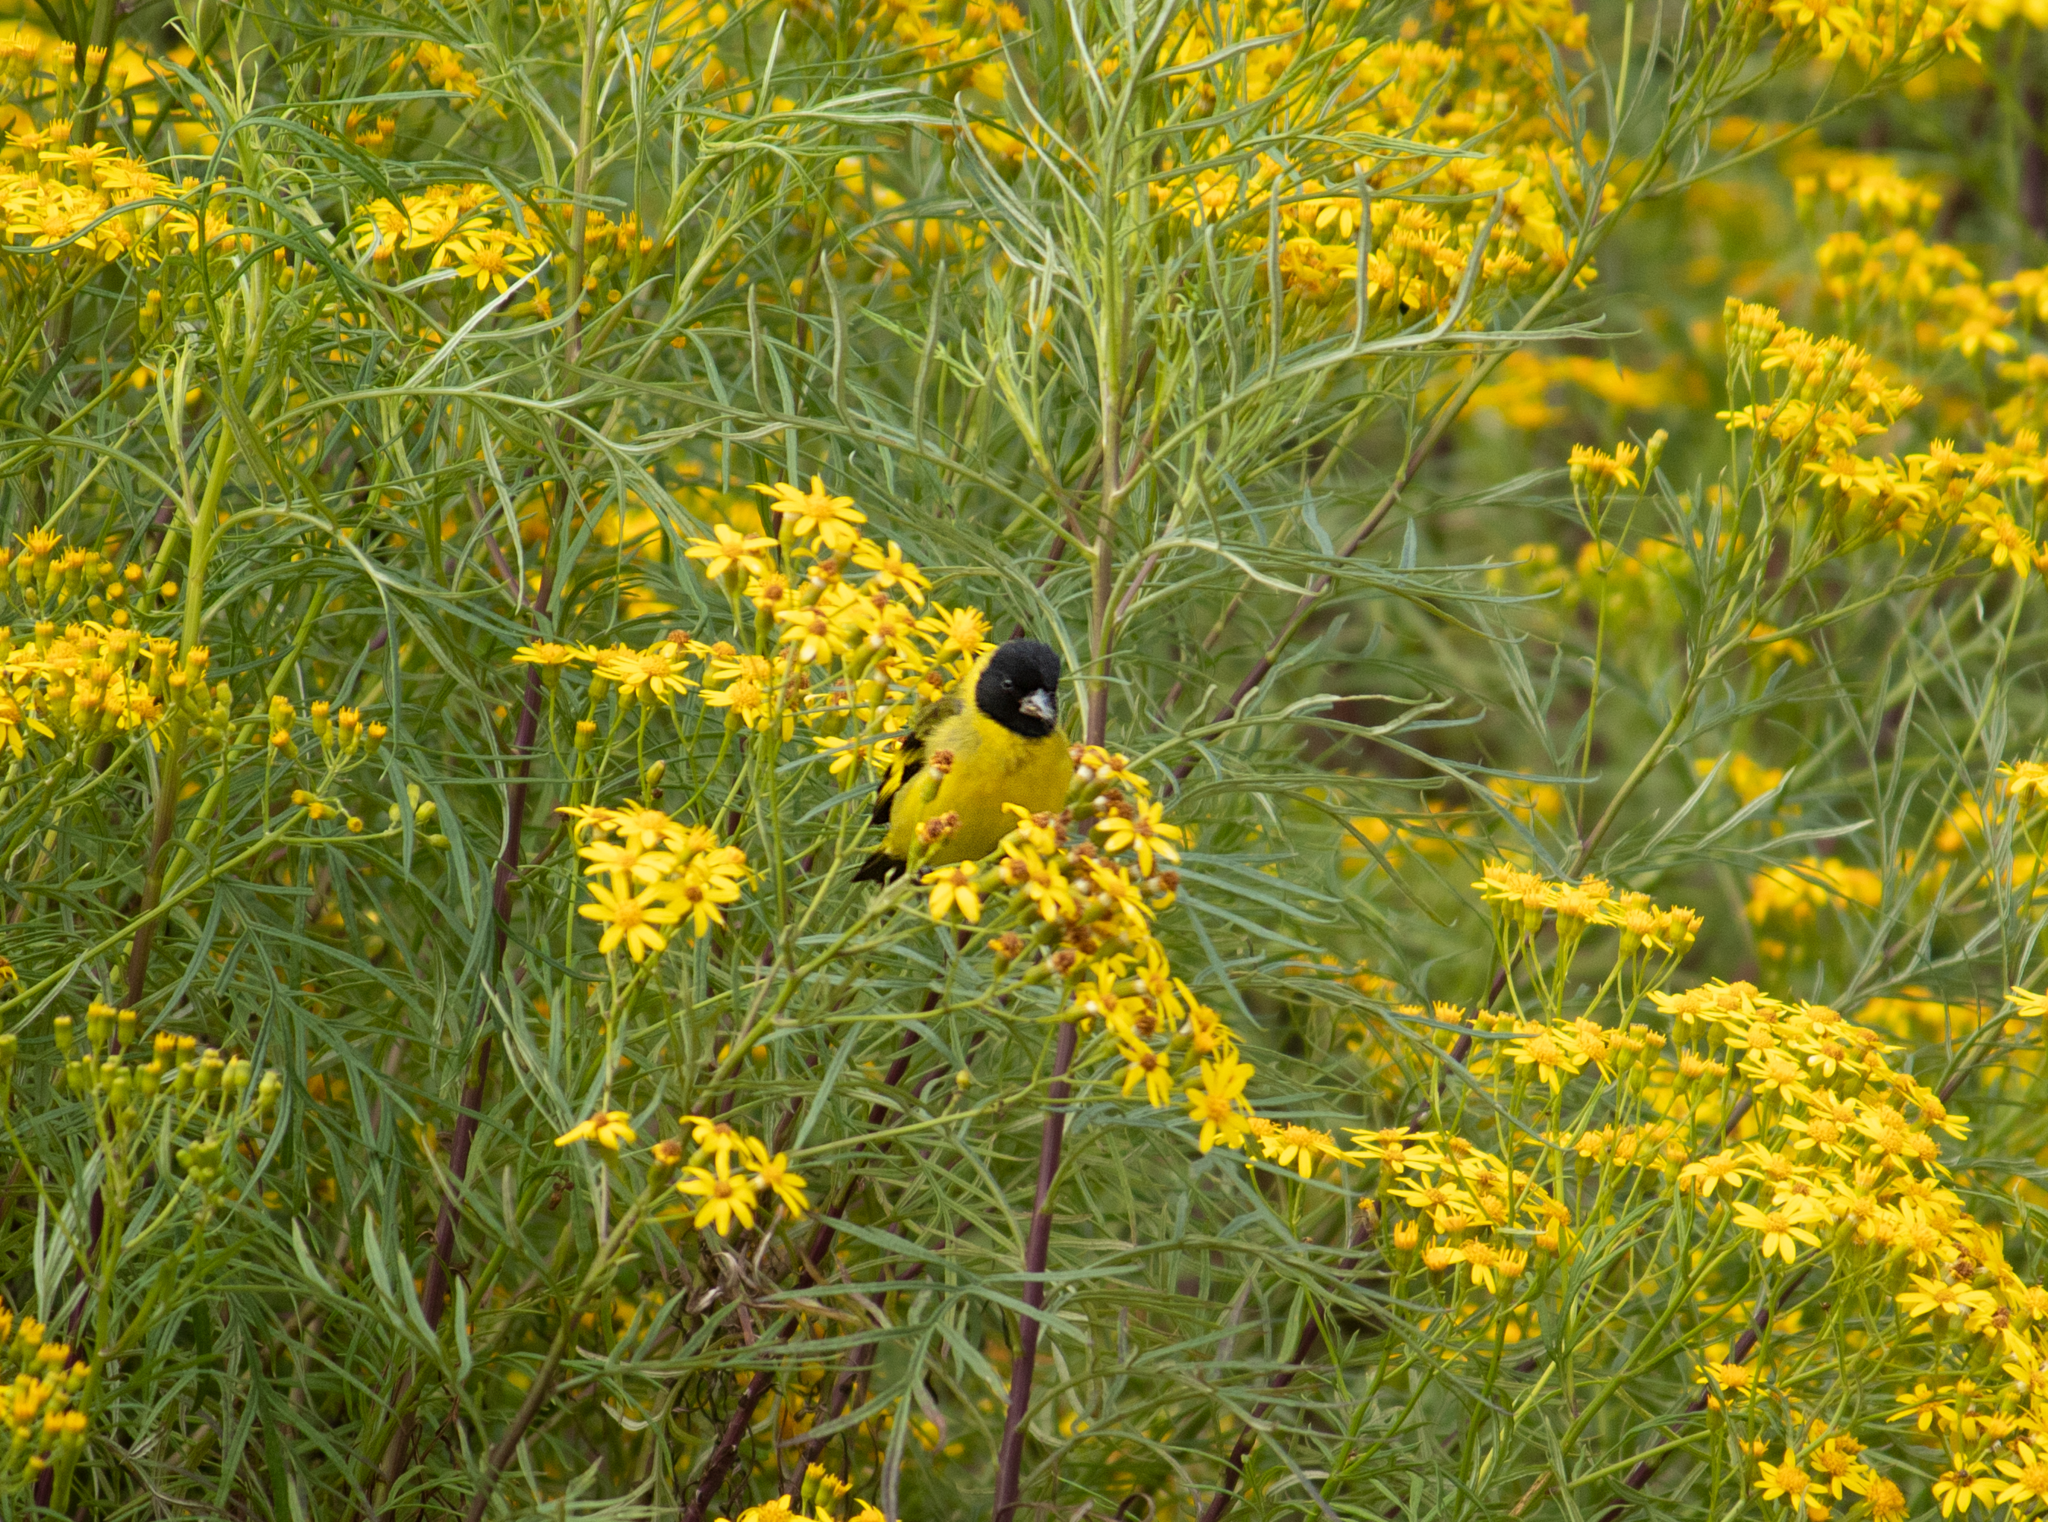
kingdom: Animalia
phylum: Chordata
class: Aves
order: Passeriformes
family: Fringillidae
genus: Spinus
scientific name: Spinus magellanicus
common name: Hooded siskin
